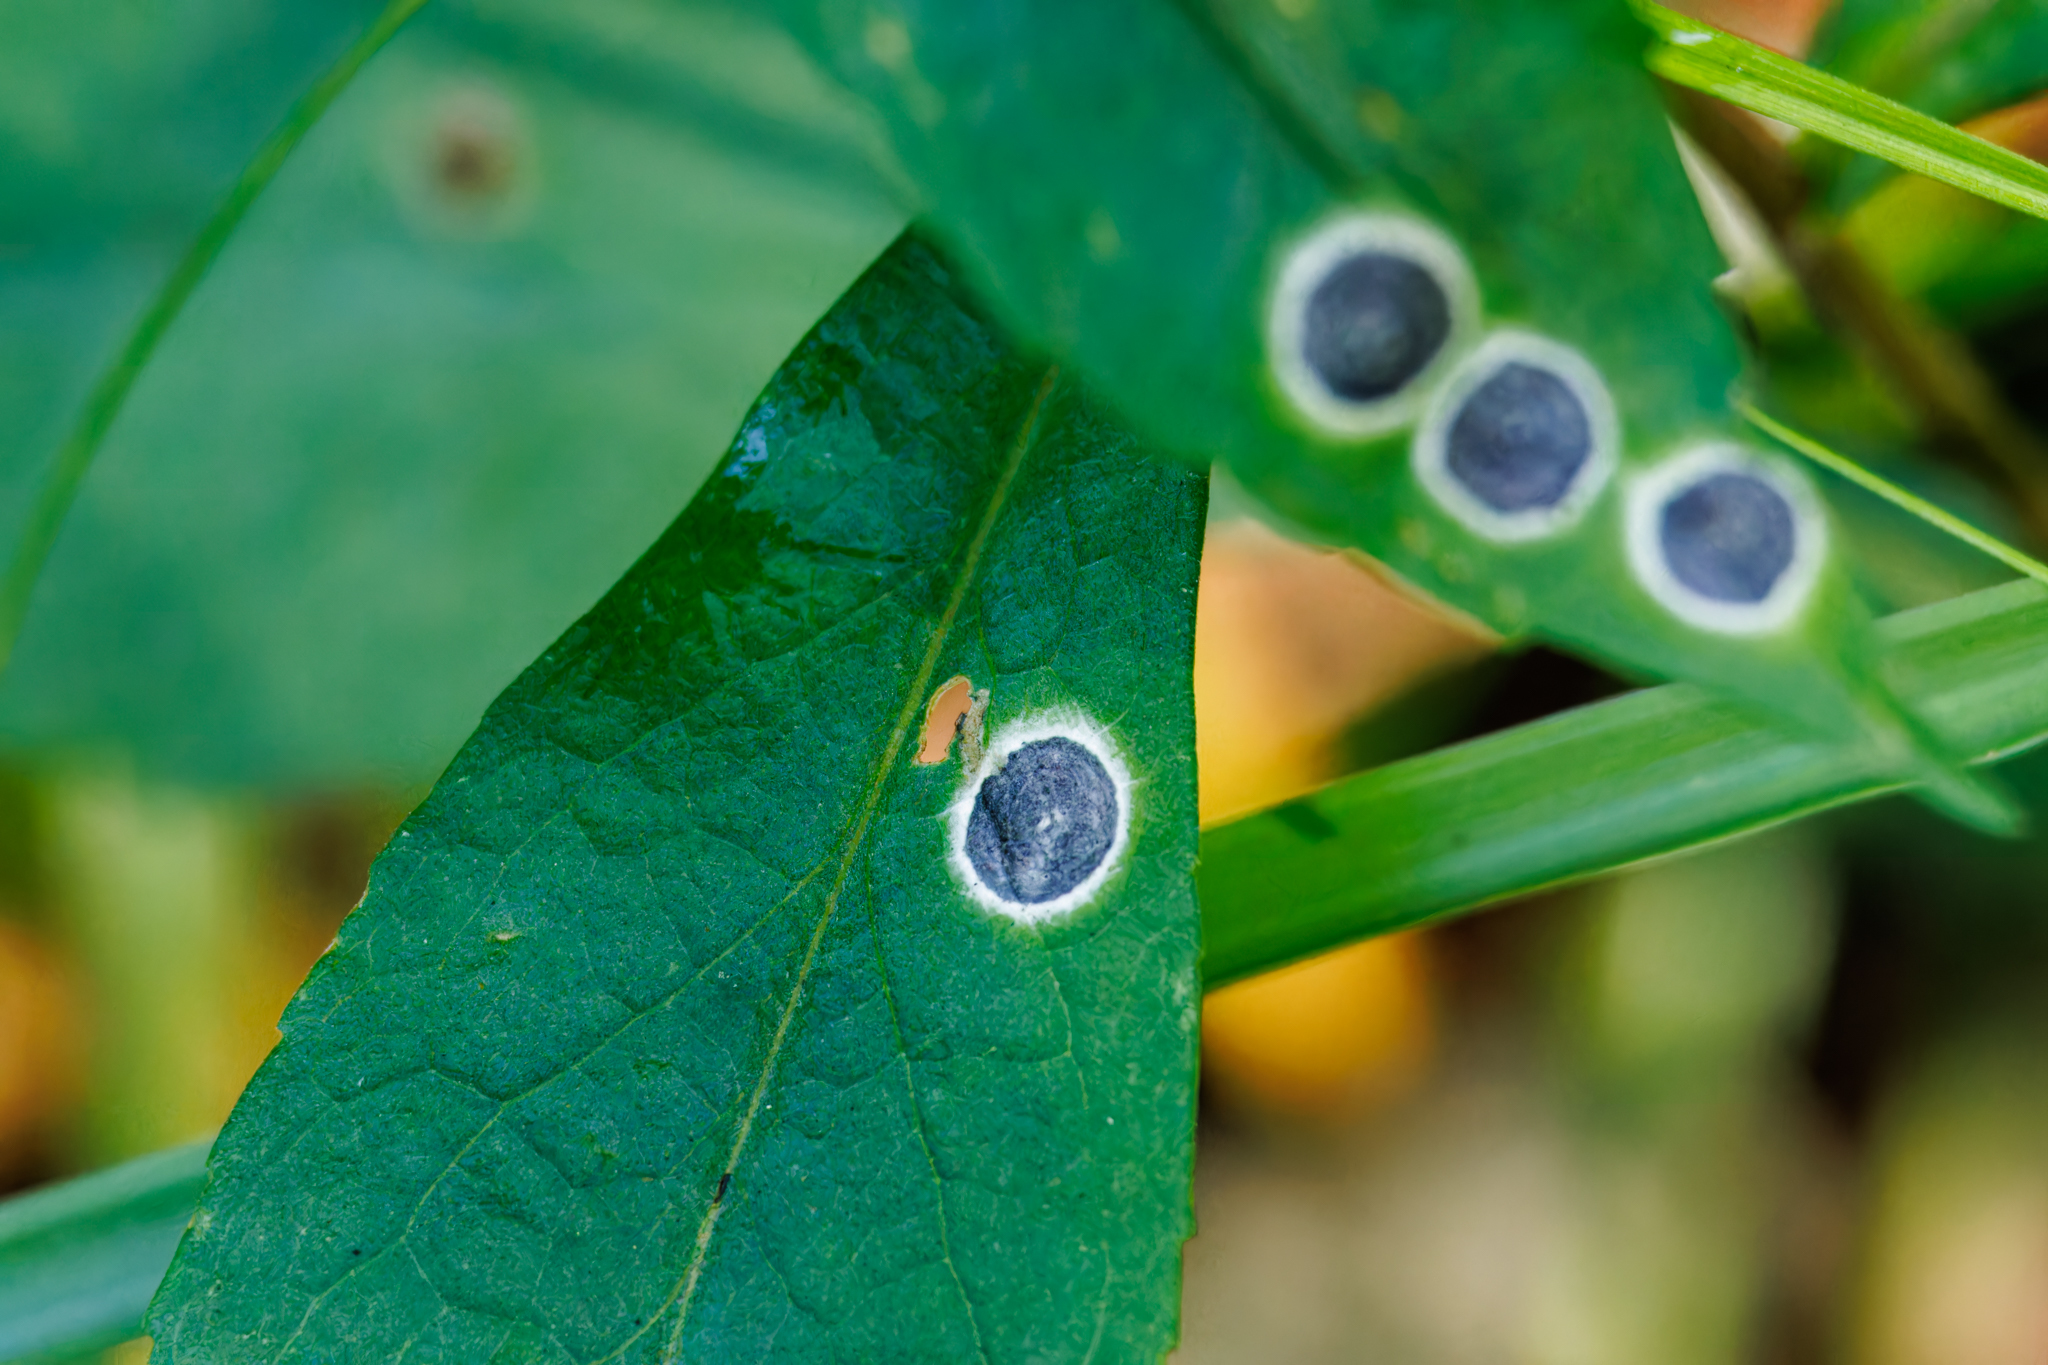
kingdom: Animalia
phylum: Arthropoda
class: Insecta
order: Diptera
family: Cecidomyiidae
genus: Asteromyia
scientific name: Asteromyia carbonifera
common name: Carbonifera goldenrod gall midge
